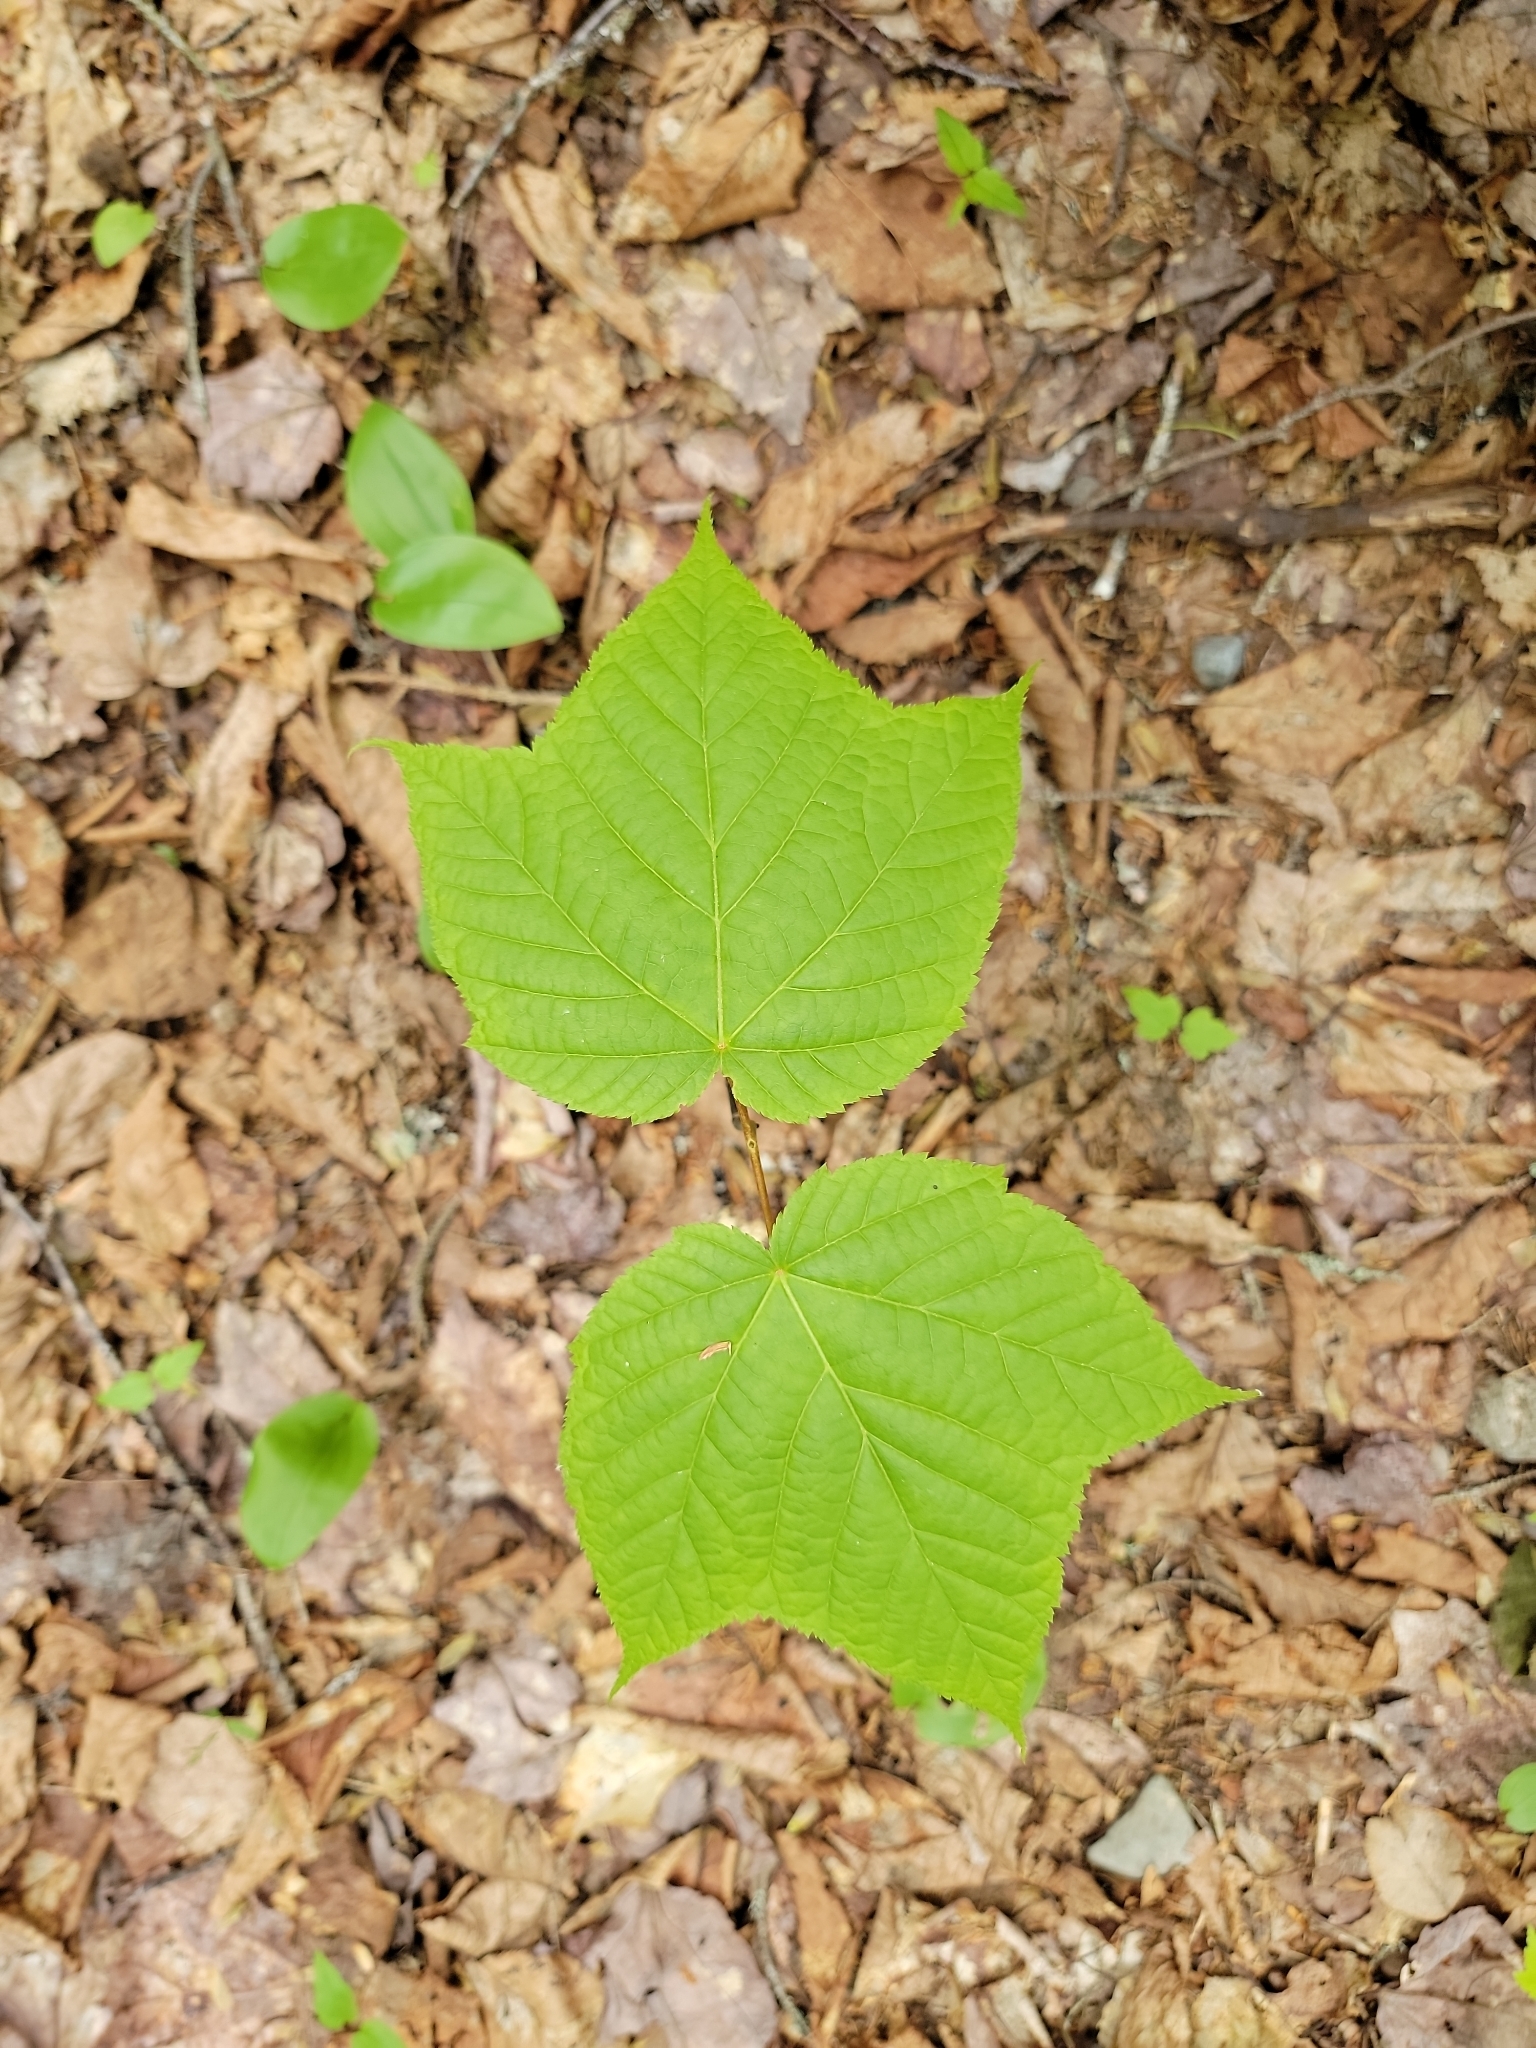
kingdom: Plantae
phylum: Tracheophyta
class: Magnoliopsida
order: Sapindales
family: Sapindaceae
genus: Acer
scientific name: Acer pensylvanicum
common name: Moosewood
